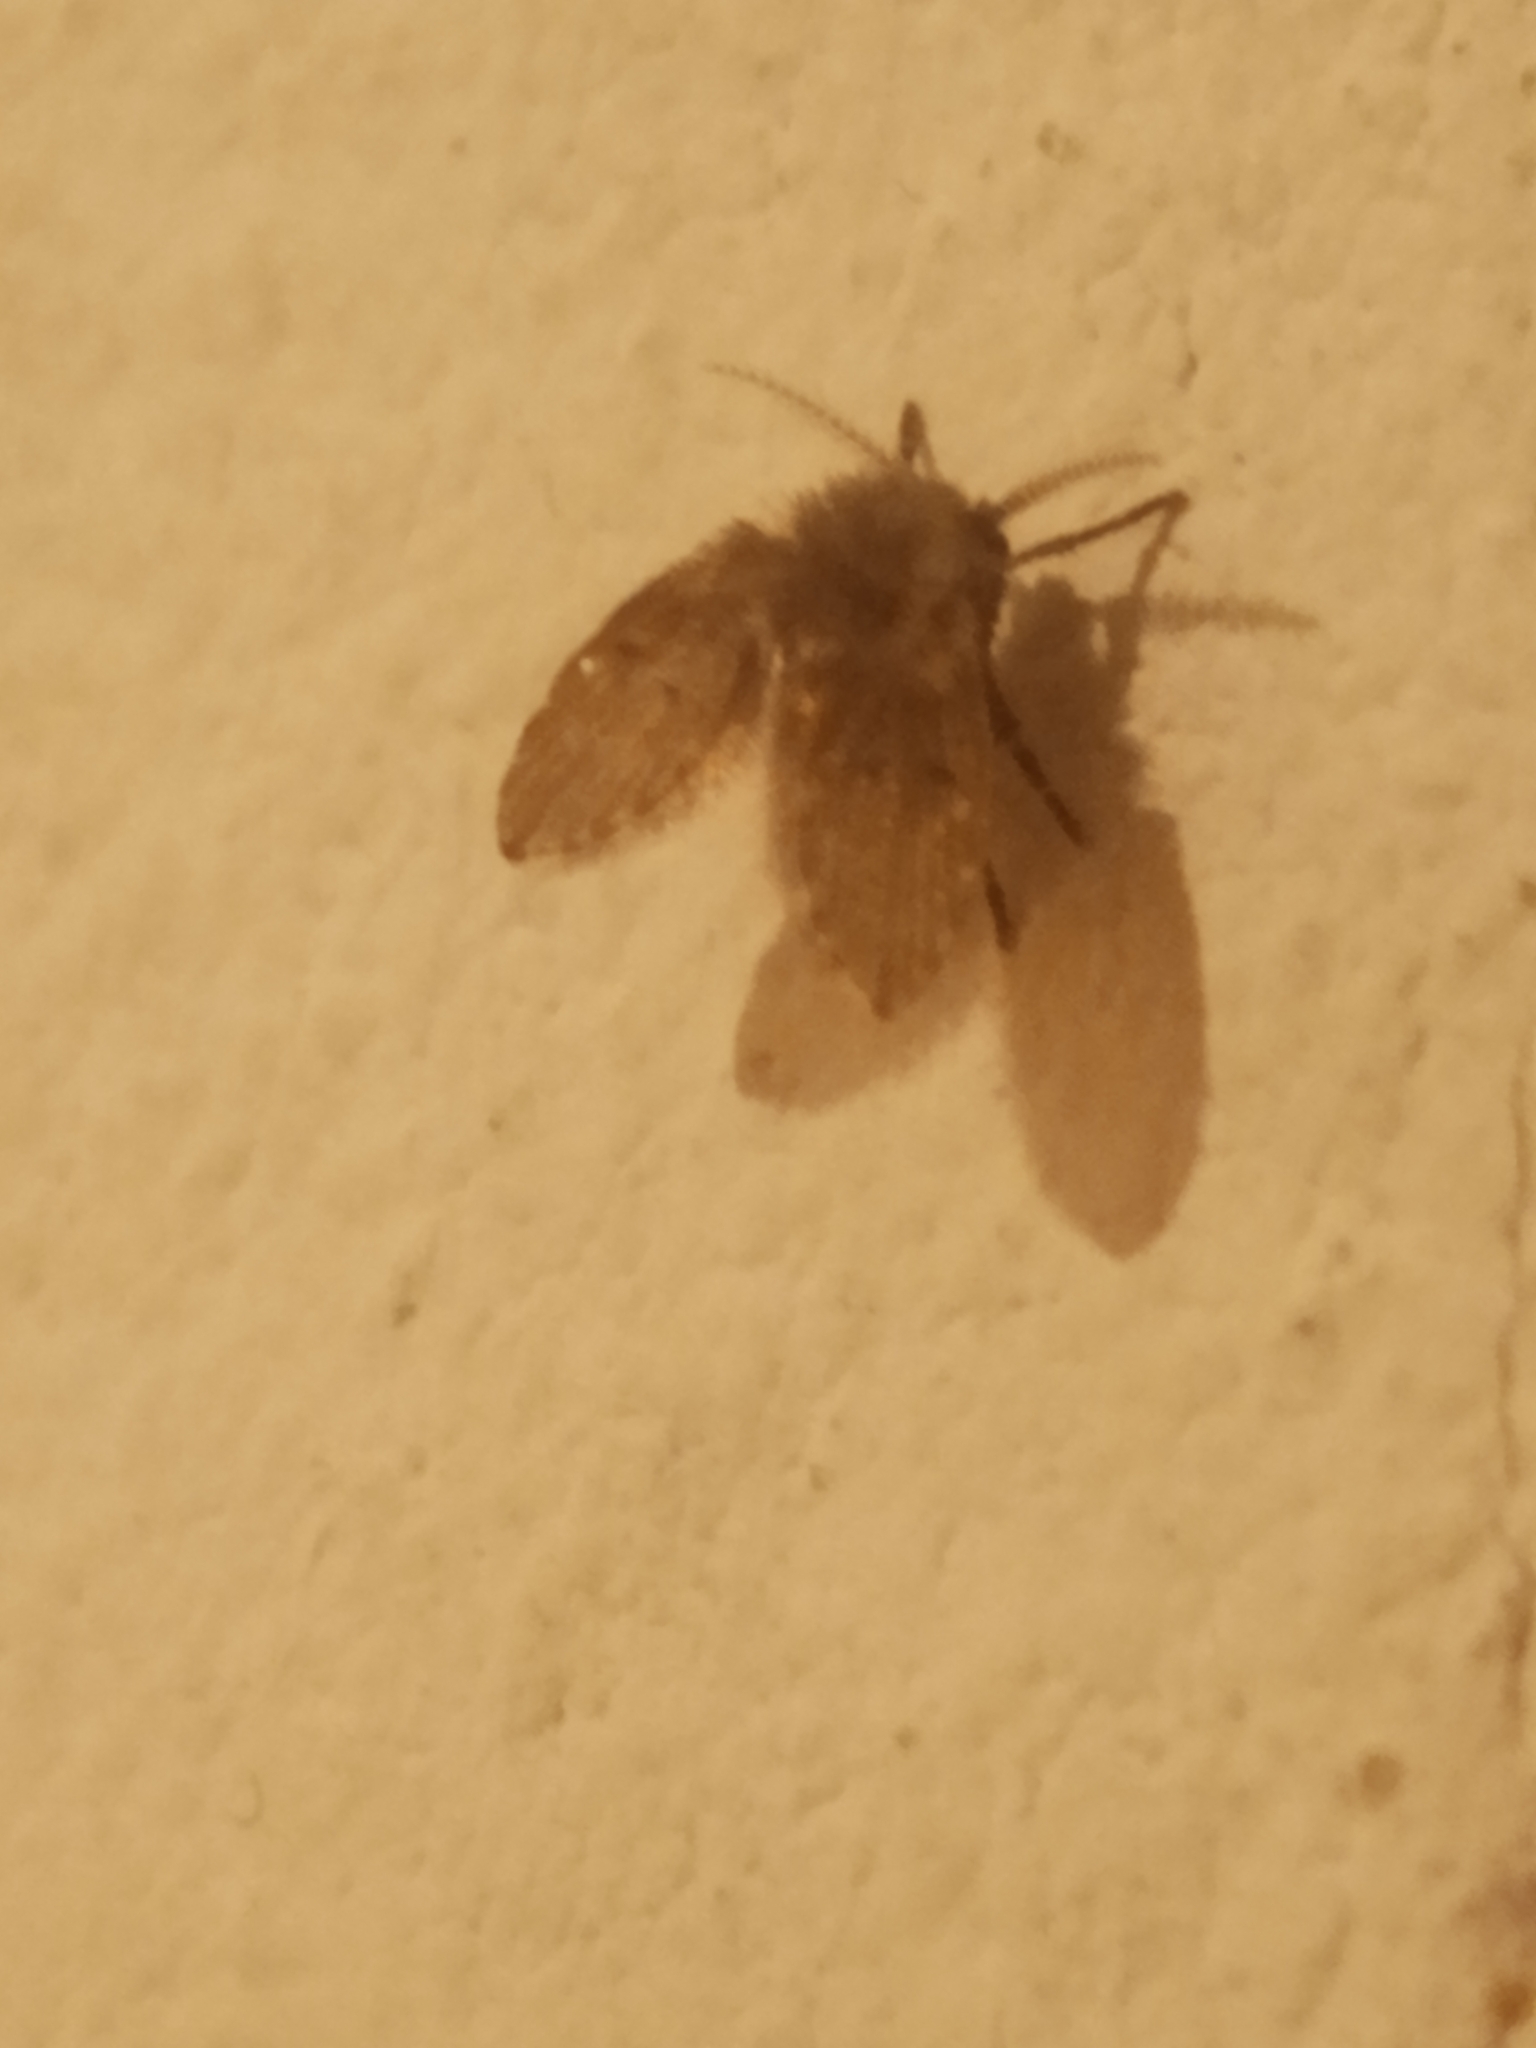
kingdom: Animalia
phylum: Arthropoda
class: Insecta
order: Diptera
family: Psychodidae
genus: Clogmia
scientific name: Clogmia albipunctatus
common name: White-spotted moth fly
